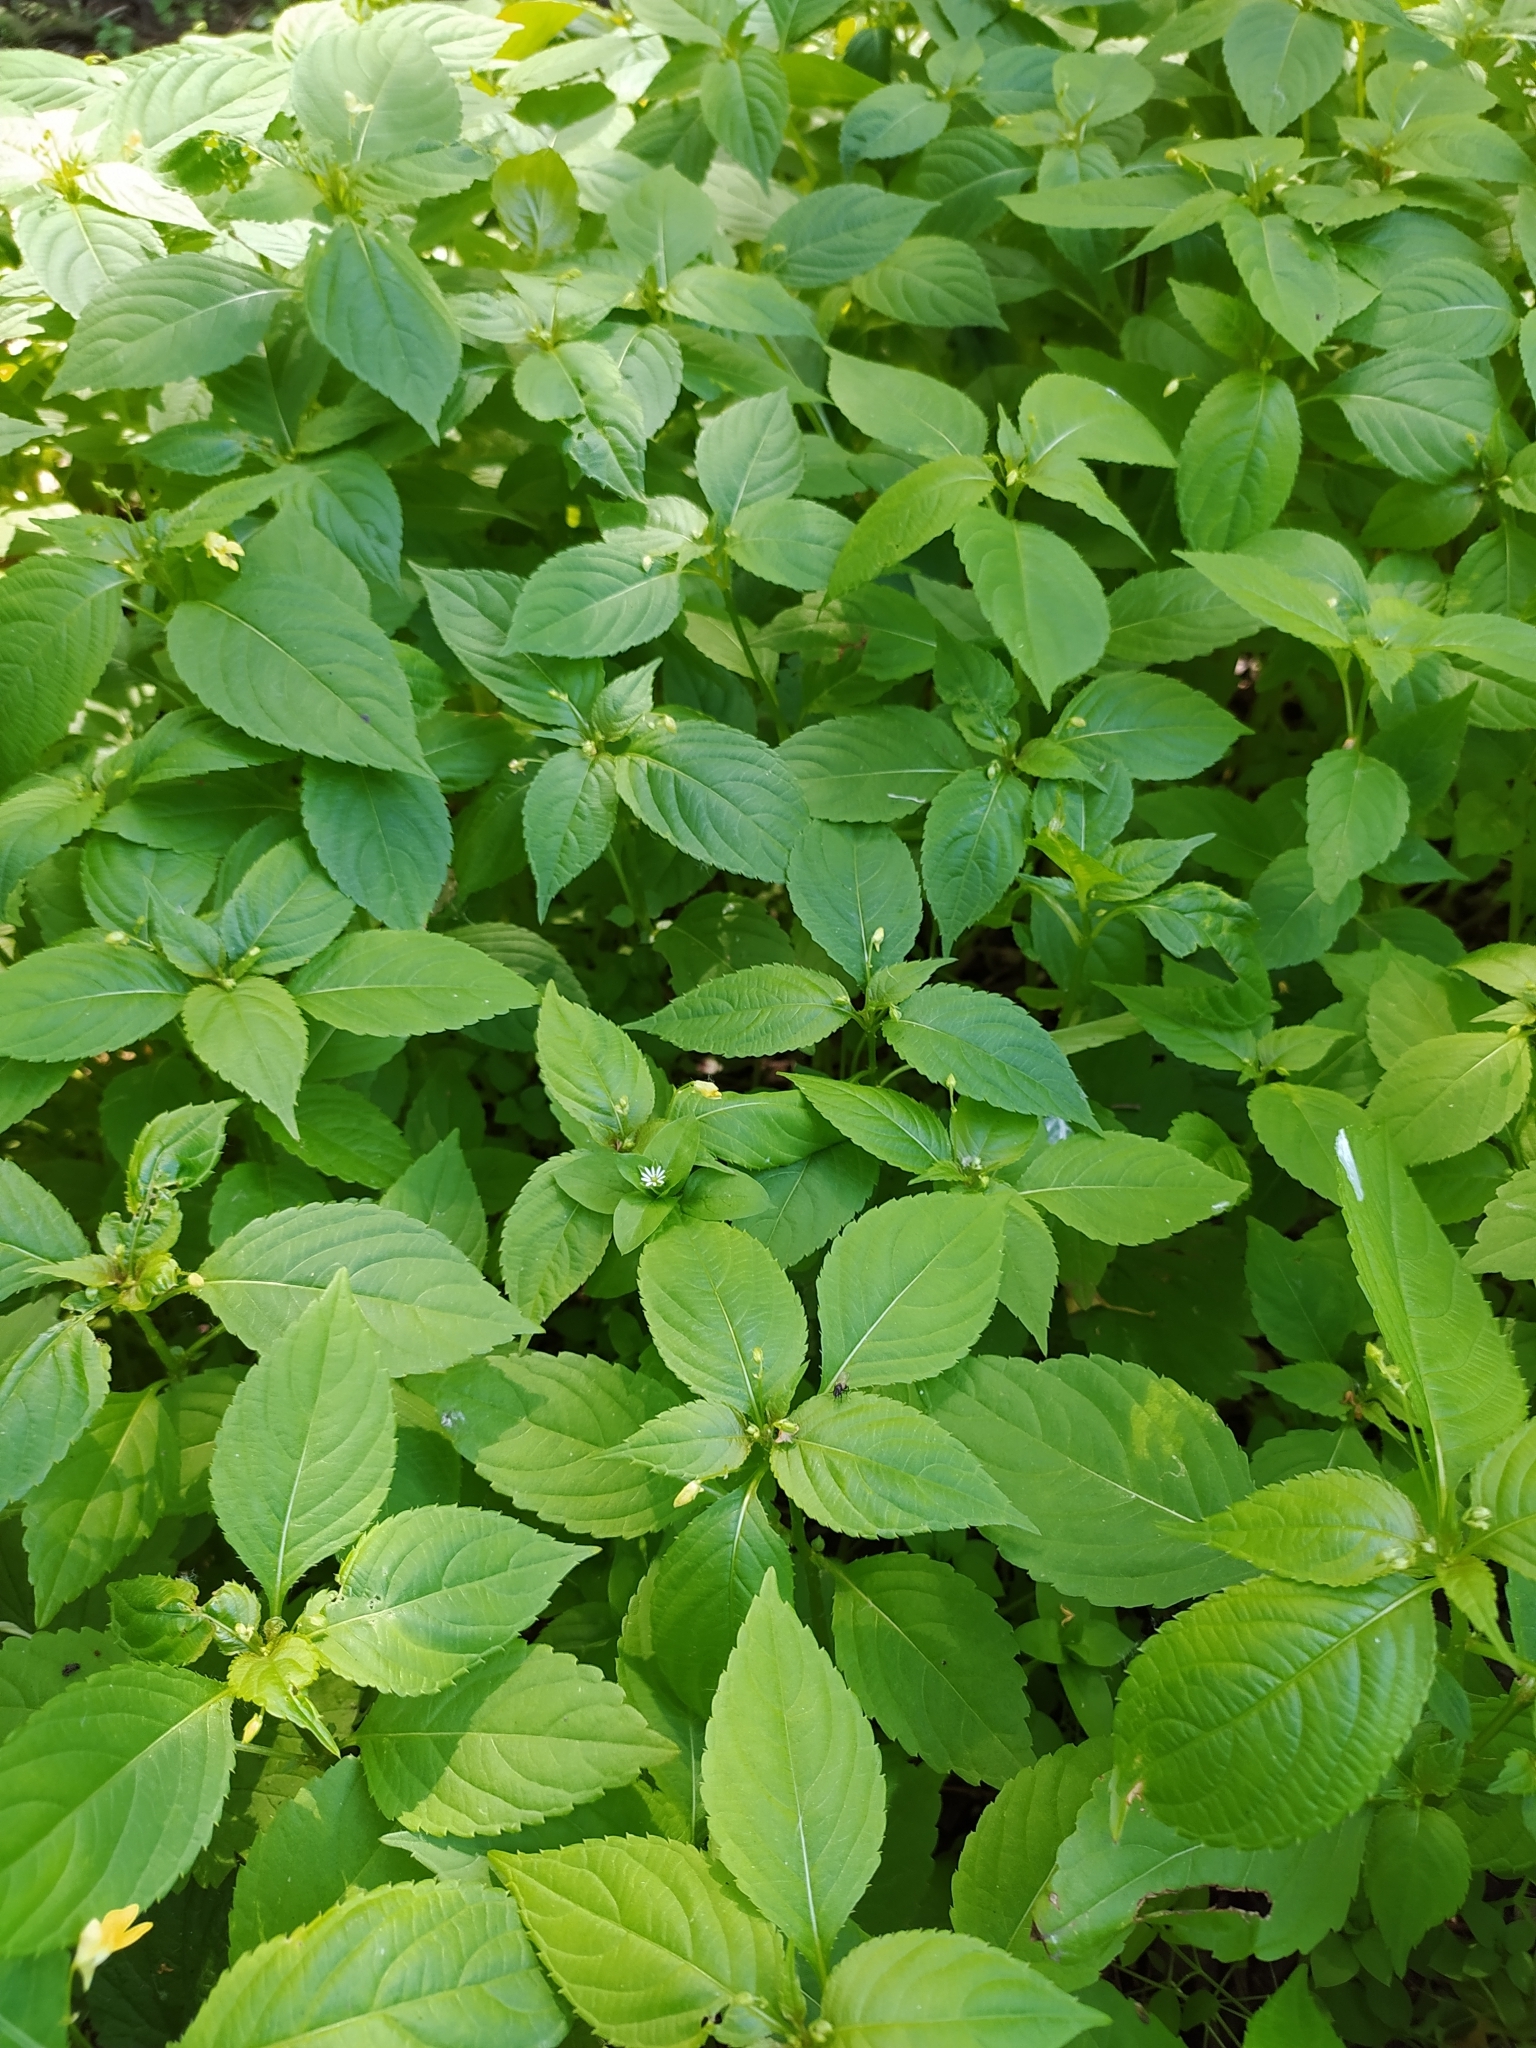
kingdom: Plantae
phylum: Tracheophyta
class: Magnoliopsida
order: Ericales
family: Balsaminaceae
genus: Impatiens
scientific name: Impatiens parviflora
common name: Small balsam
